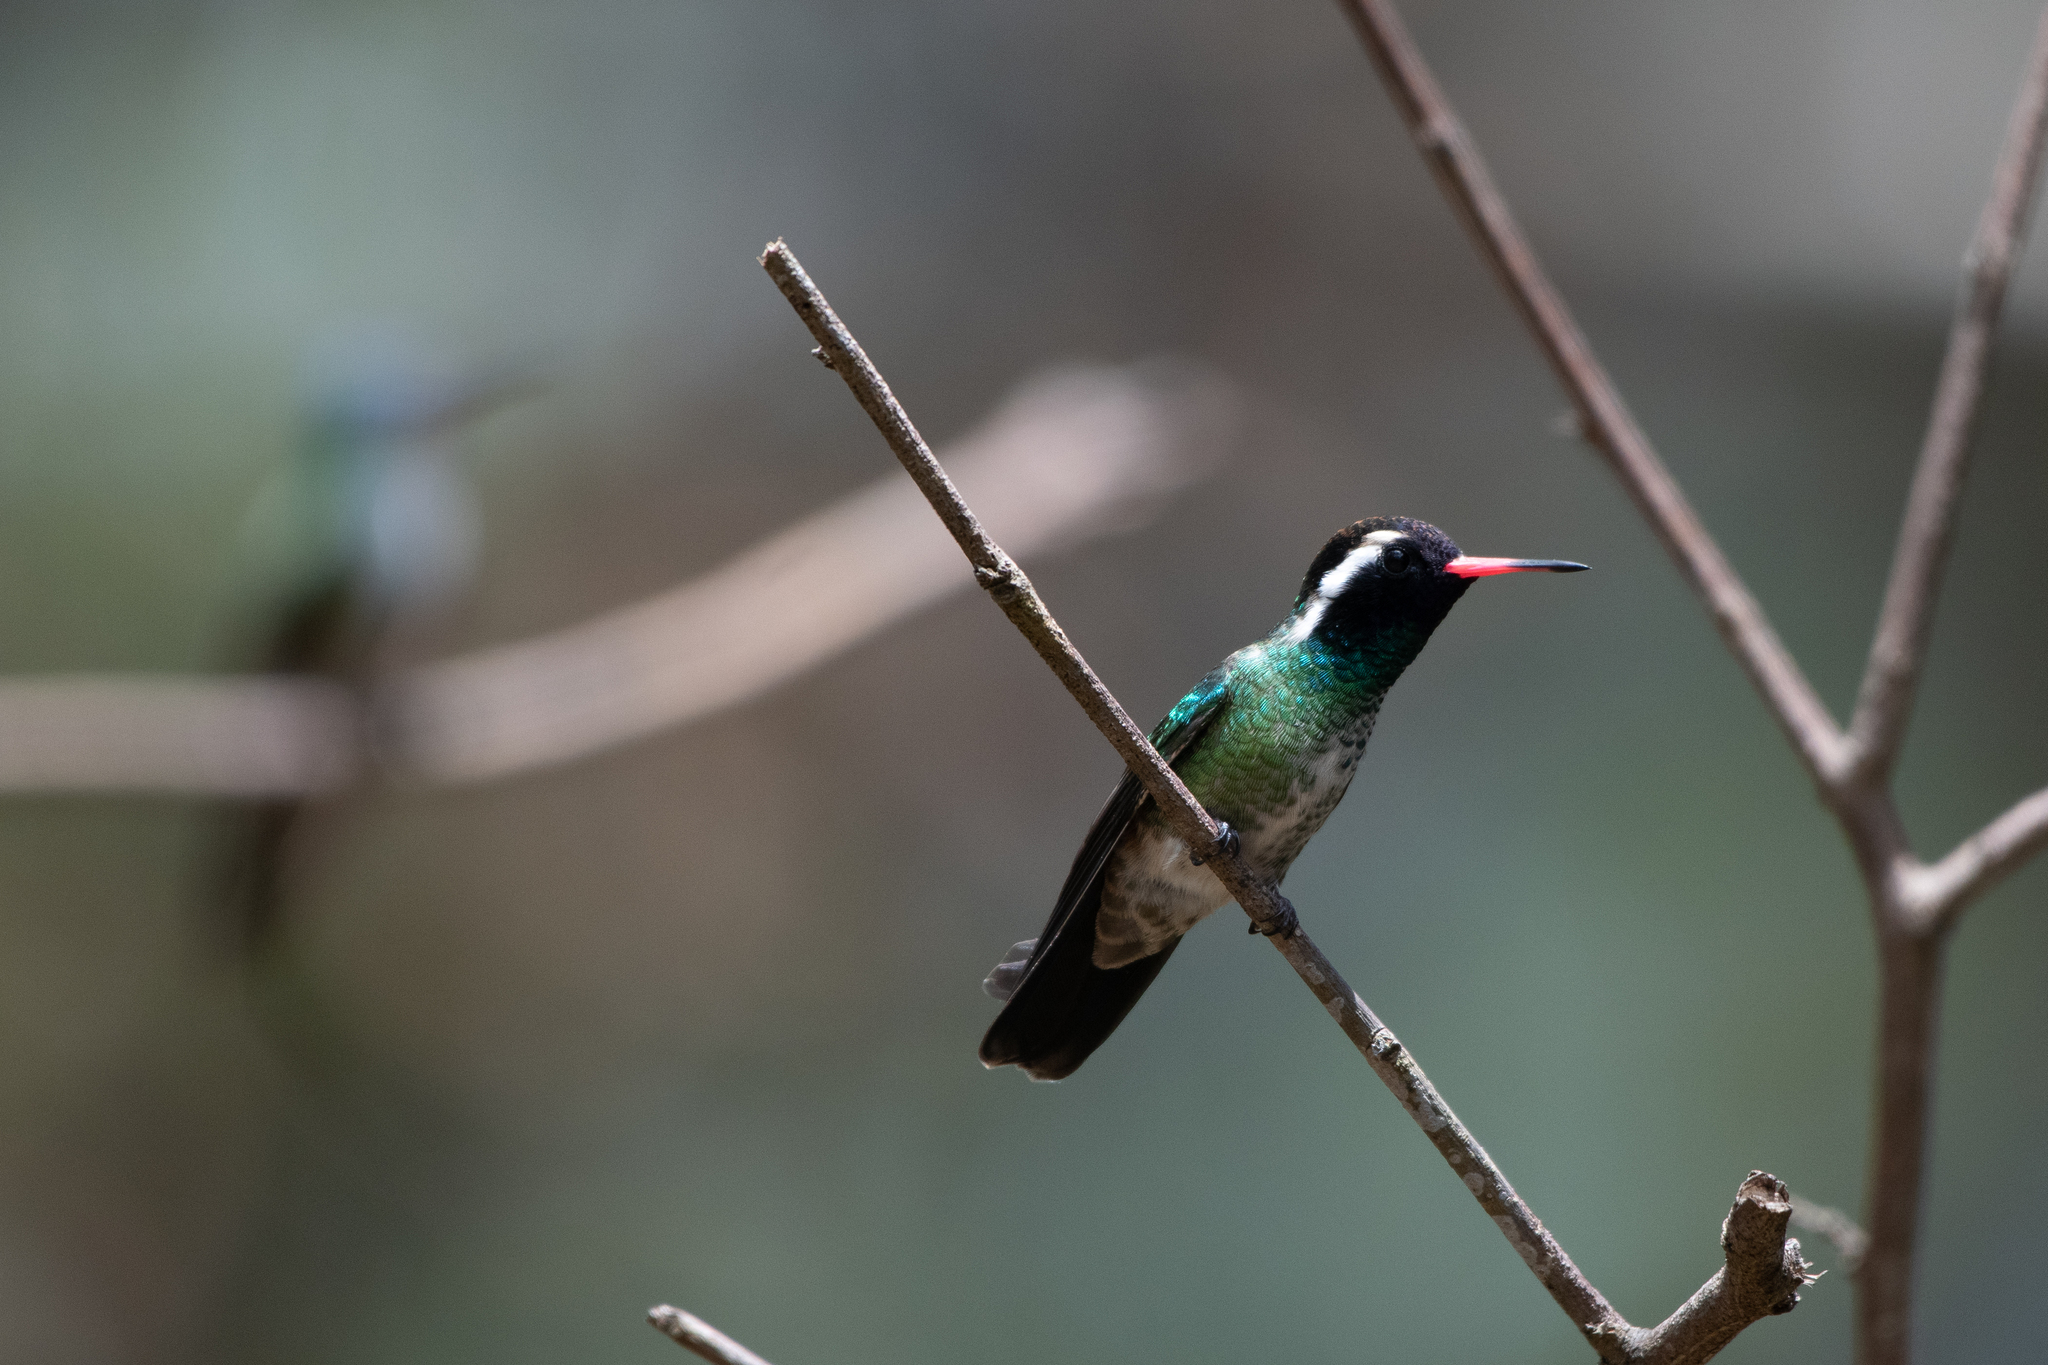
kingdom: Animalia
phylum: Chordata
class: Aves
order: Apodiformes
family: Trochilidae
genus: Basilinna
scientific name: Basilinna leucotis
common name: White-eared hummingbird
